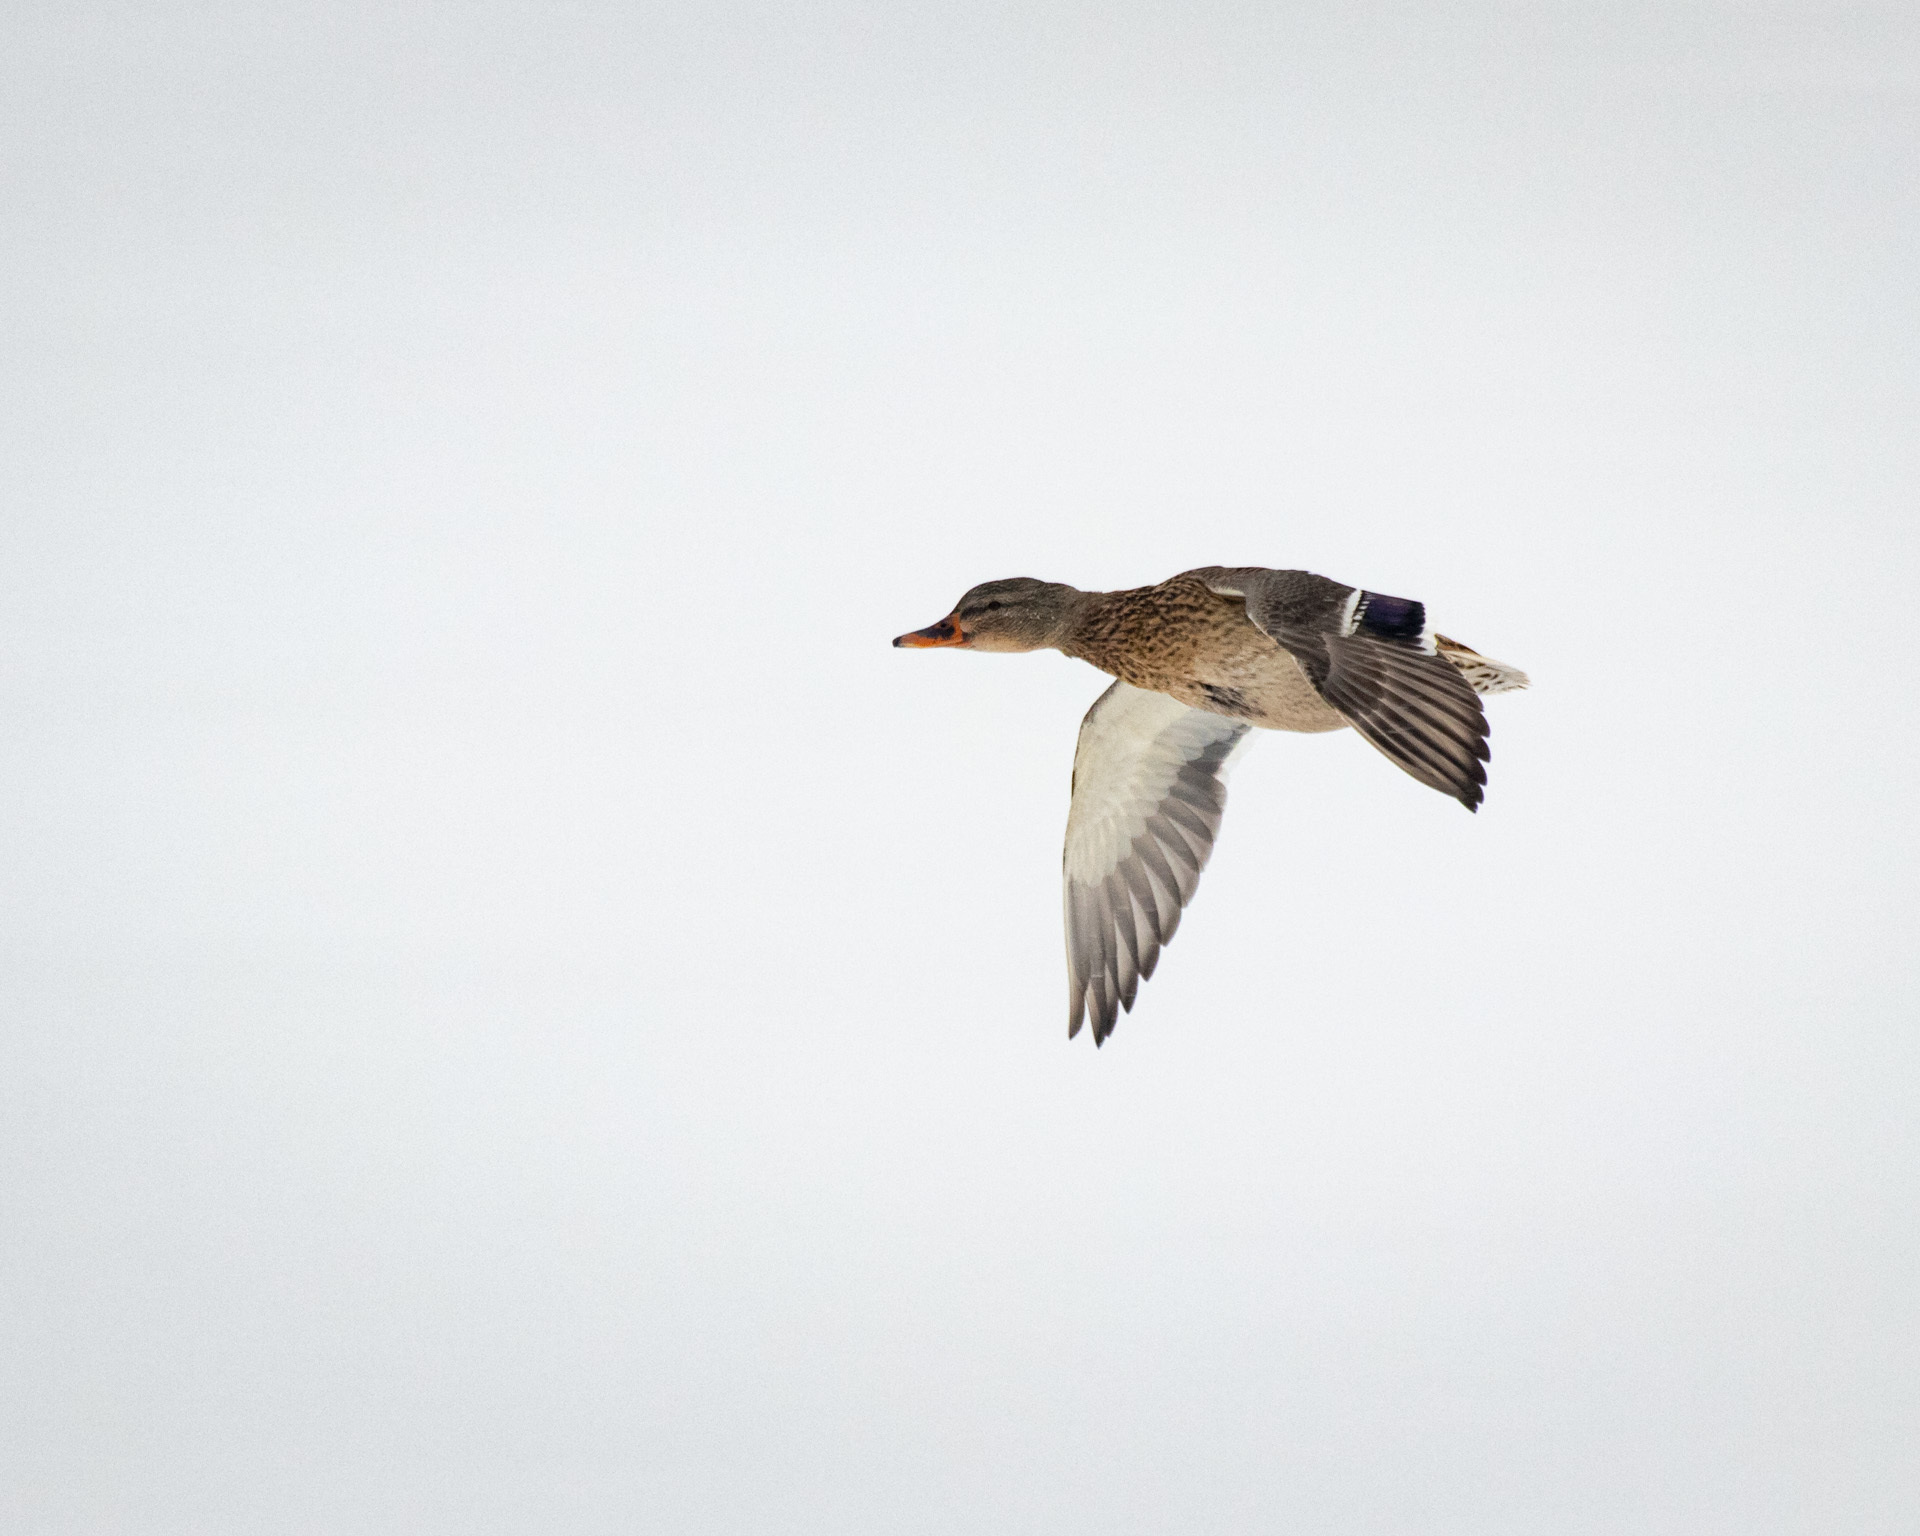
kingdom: Animalia
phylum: Chordata
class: Aves
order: Anseriformes
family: Anatidae
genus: Anas
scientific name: Anas platyrhynchos
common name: Mallard
